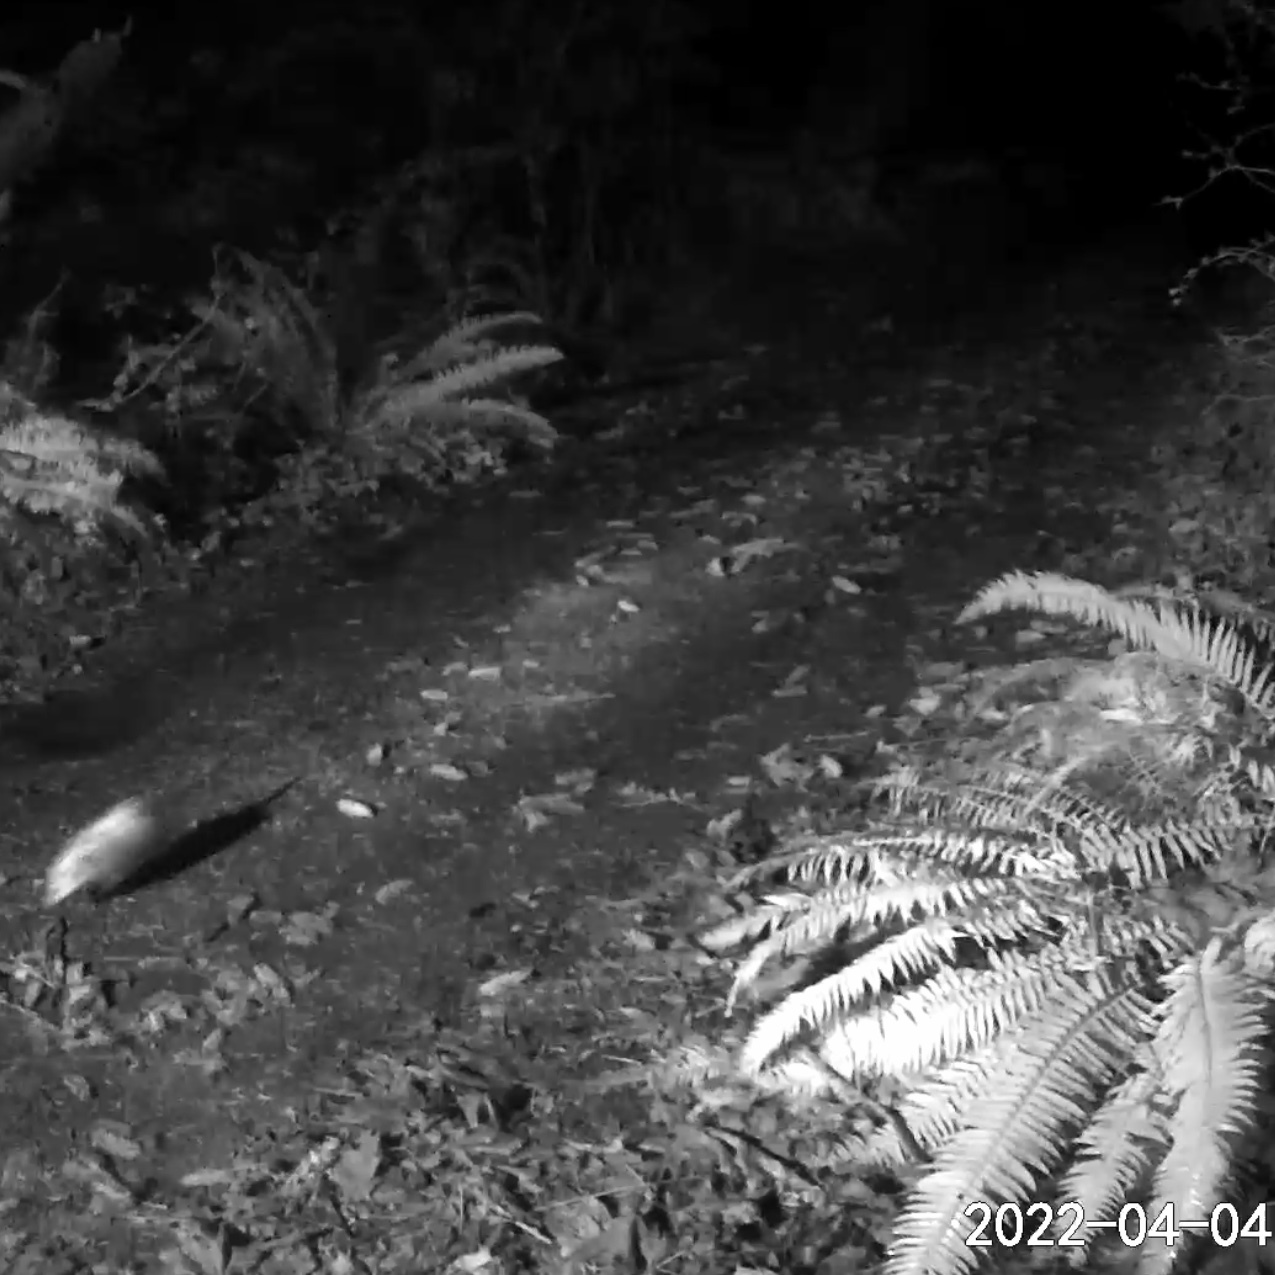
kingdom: Animalia
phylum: Chordata
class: Mammalia
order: Didelphimorphia
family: Didelphidae
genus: Didelphis
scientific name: Didelphis virginiana
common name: Virginia opossum
